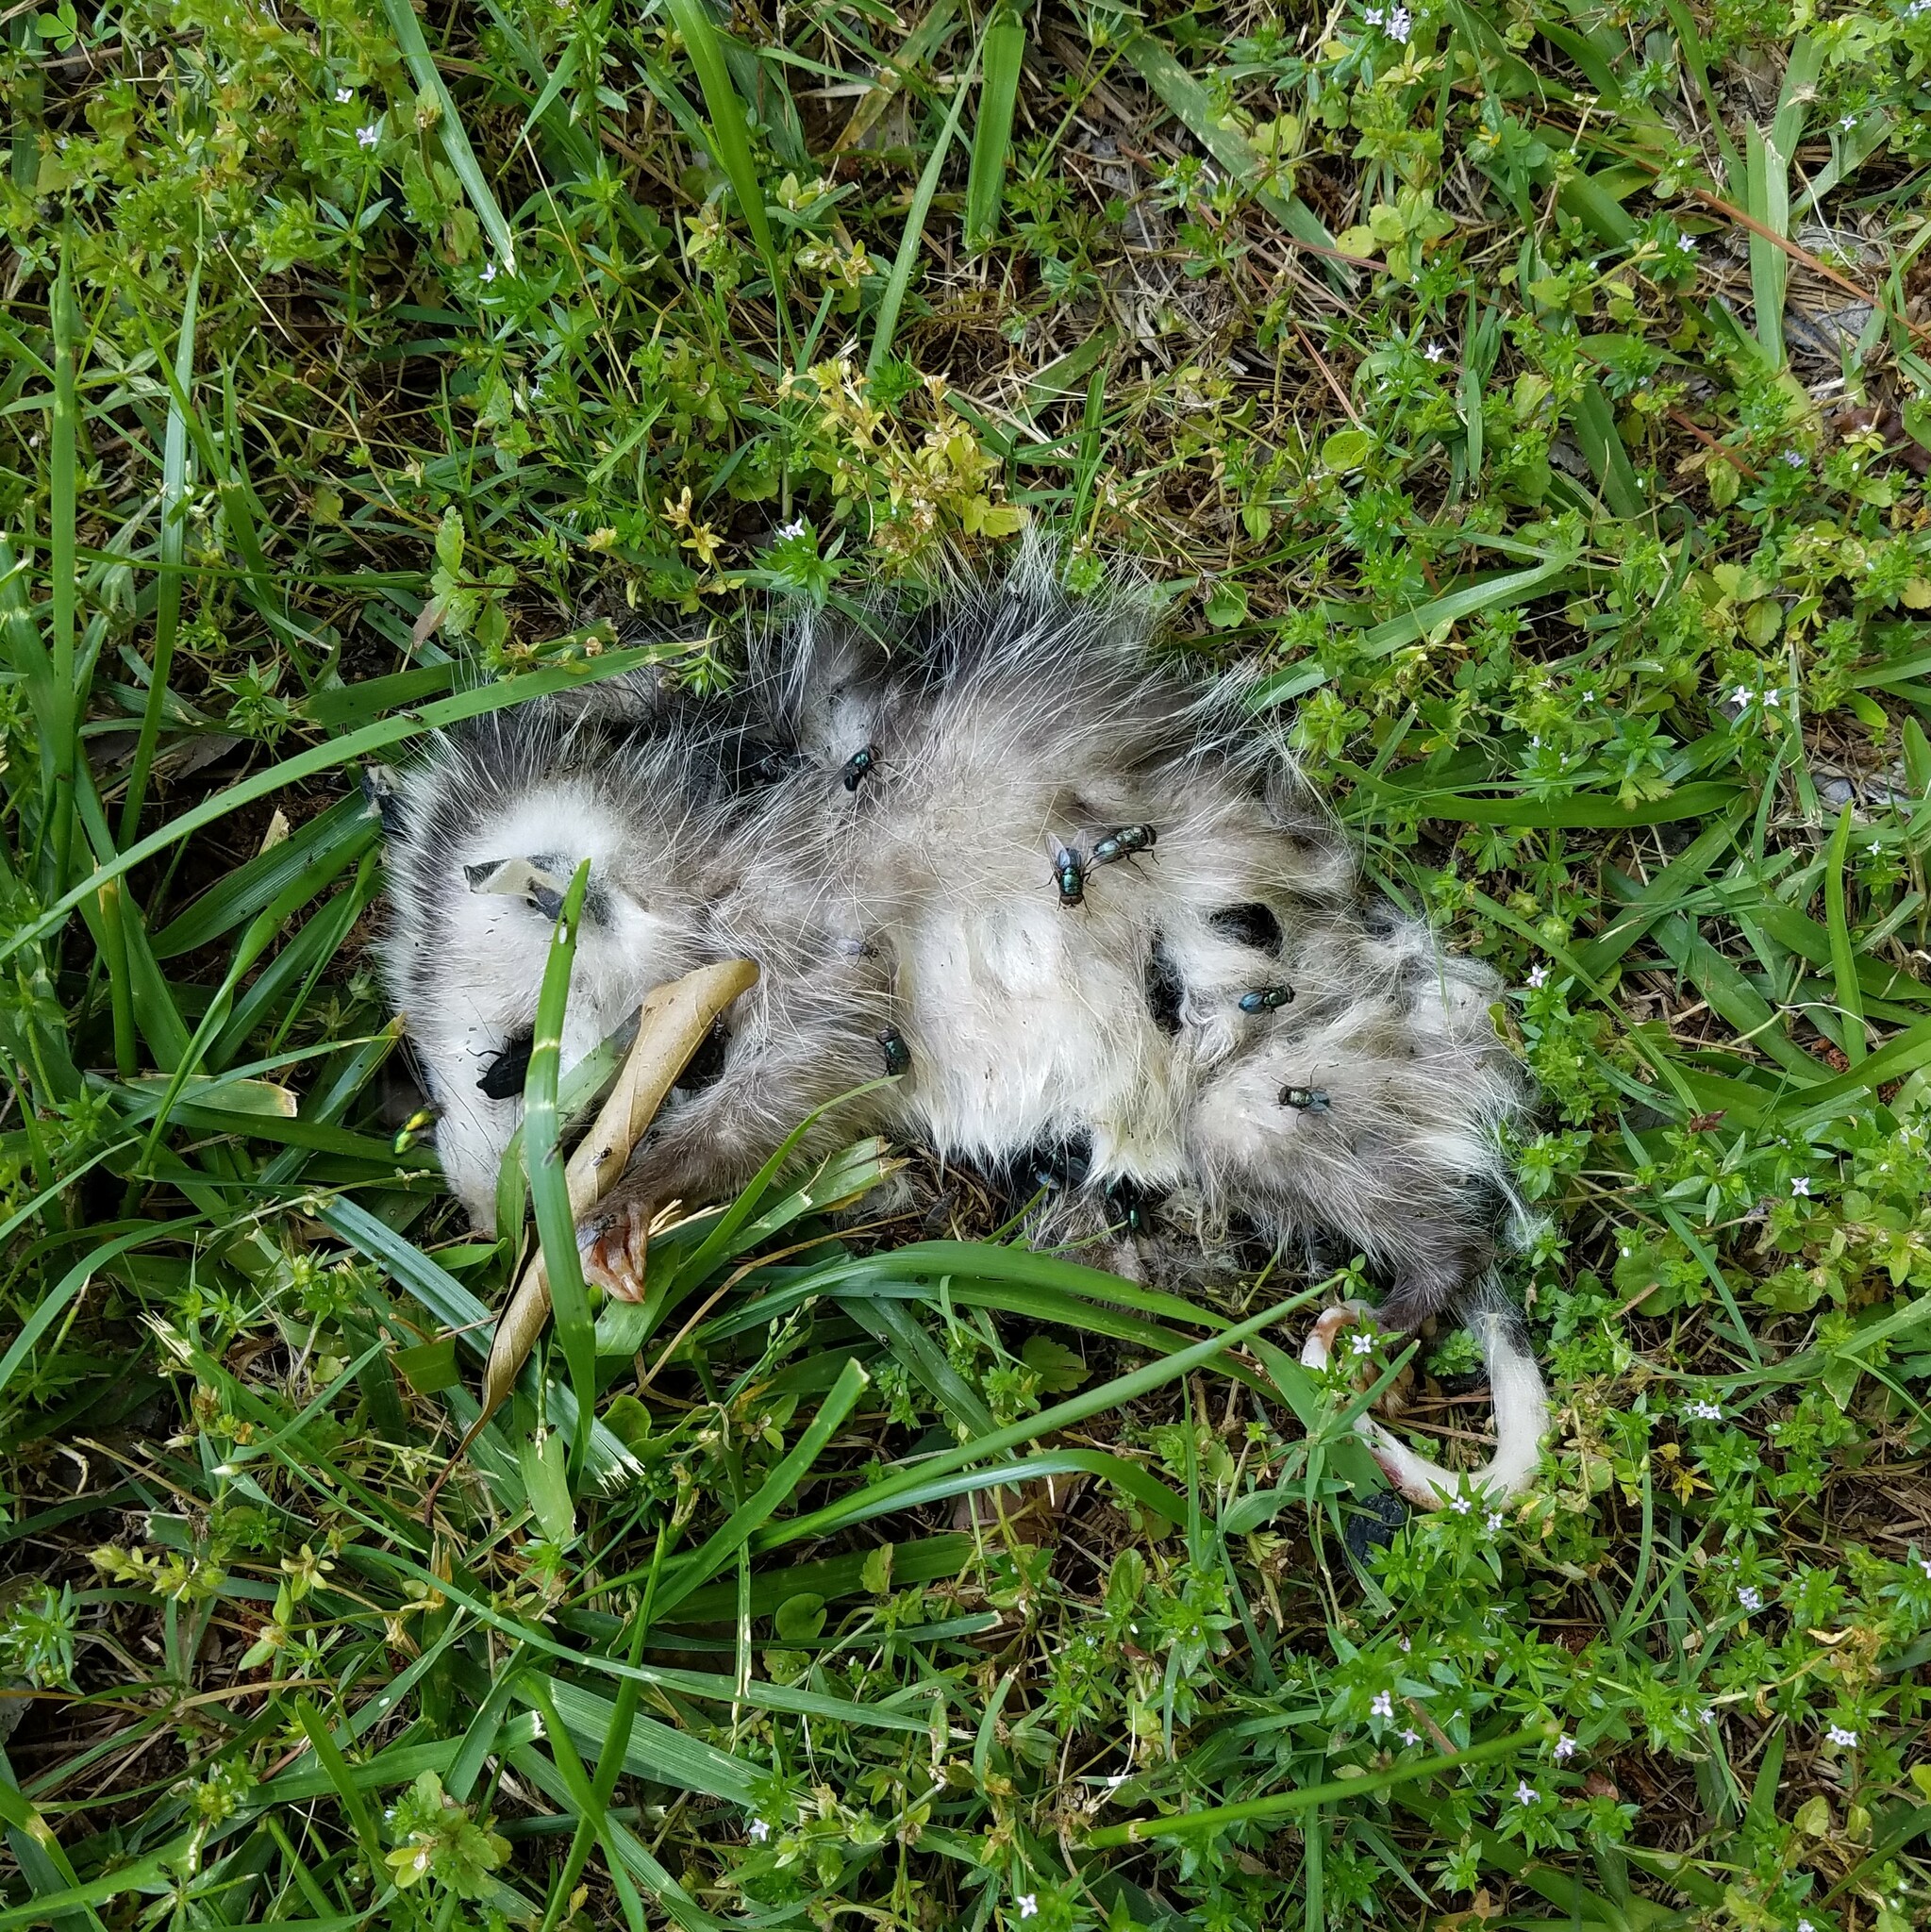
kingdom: Animalia
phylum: Chordata
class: Mammalia
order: Didelphimorphia
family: Didelphidae
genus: Didelphis
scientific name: Didelphis virginiana
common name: Virginia opossum
